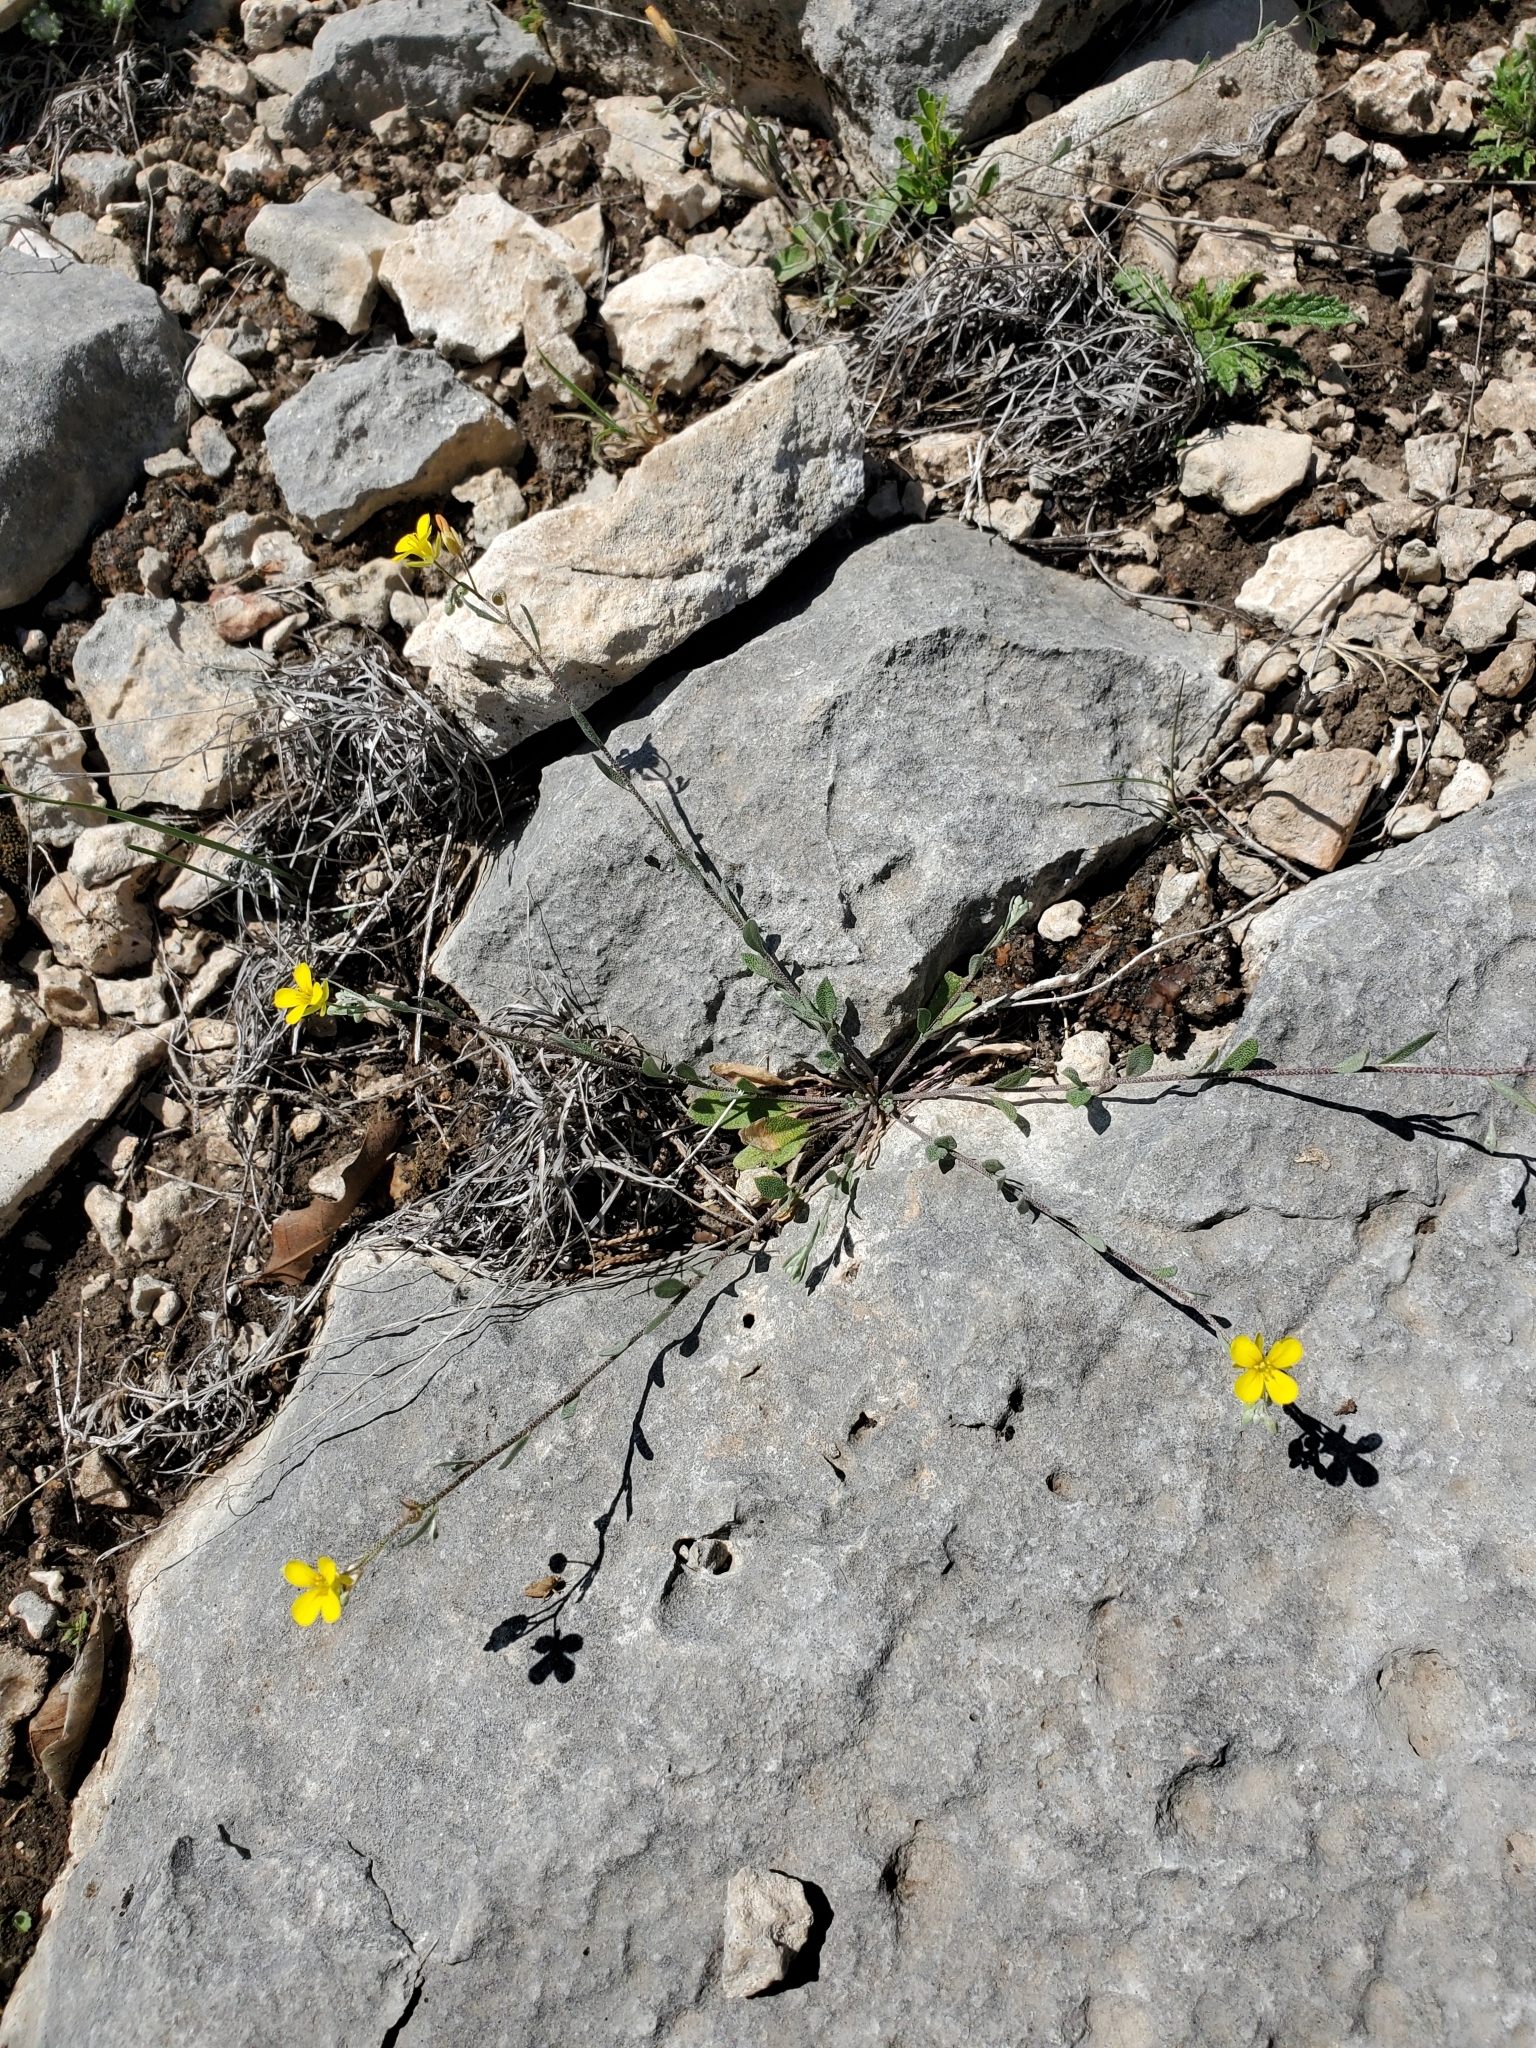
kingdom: Plantae
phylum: Tracheophyta
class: Magnoliopsida
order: Brassicales
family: Brassicaceae
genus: Physaria
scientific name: Physaria recurvata
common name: Gaslight bladderpod
